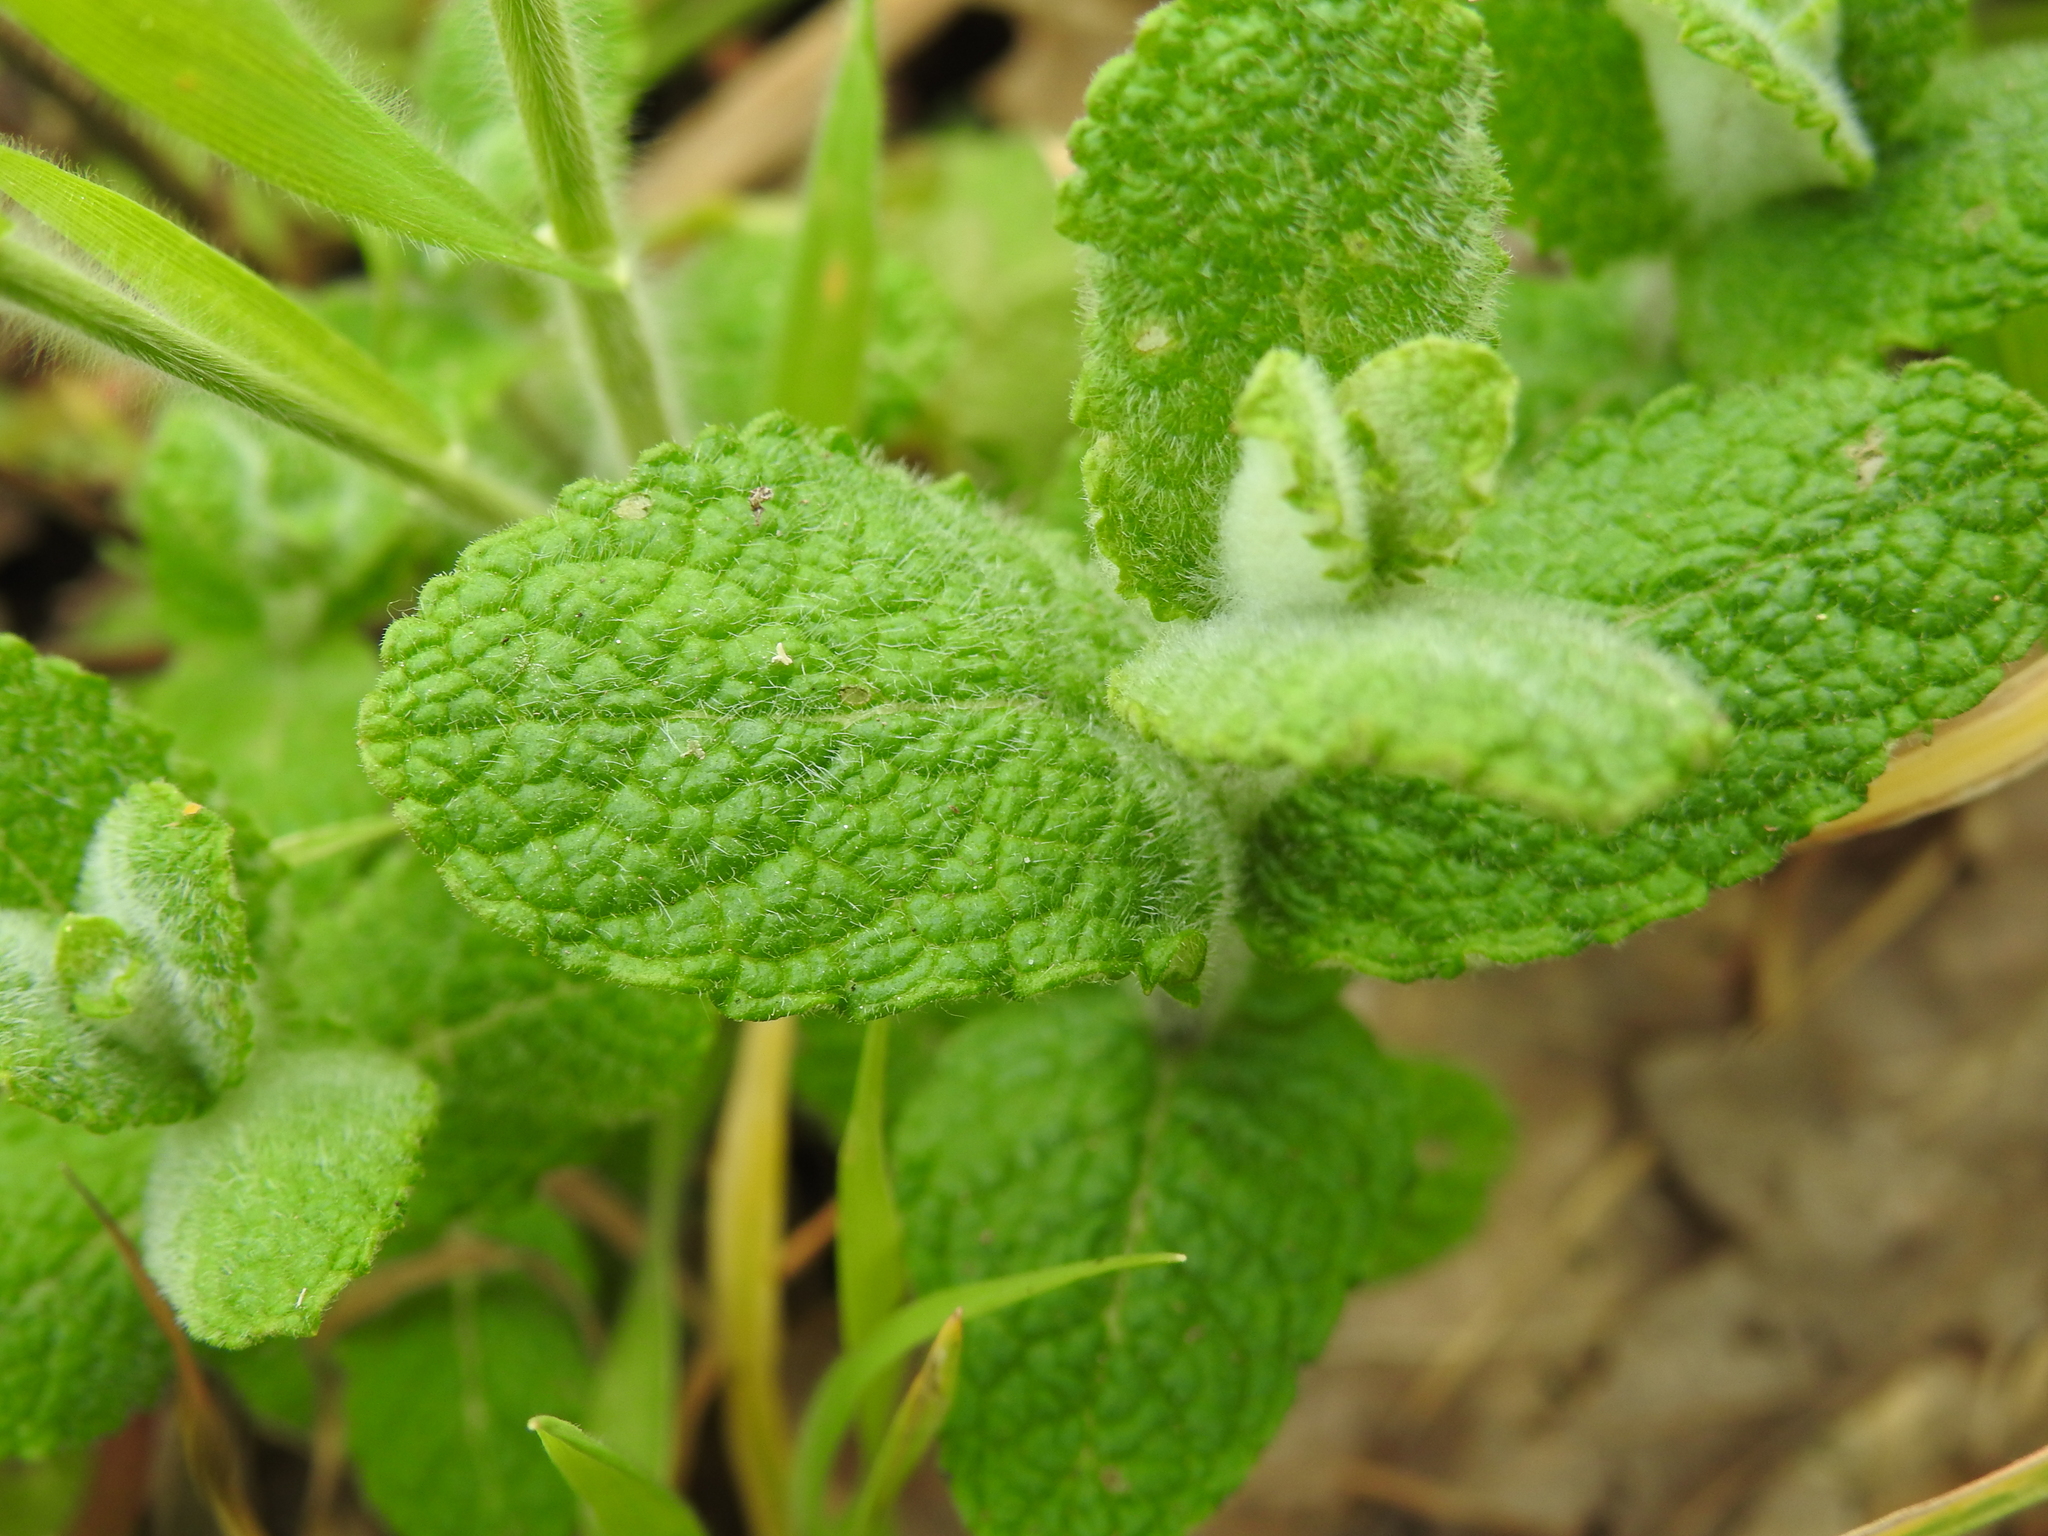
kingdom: Plantae
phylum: Tracheophyta
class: Magnoliopsida
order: Lamiales
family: Lamiaceae
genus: Mentha
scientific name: Mentha suaveolens
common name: Apple mint
